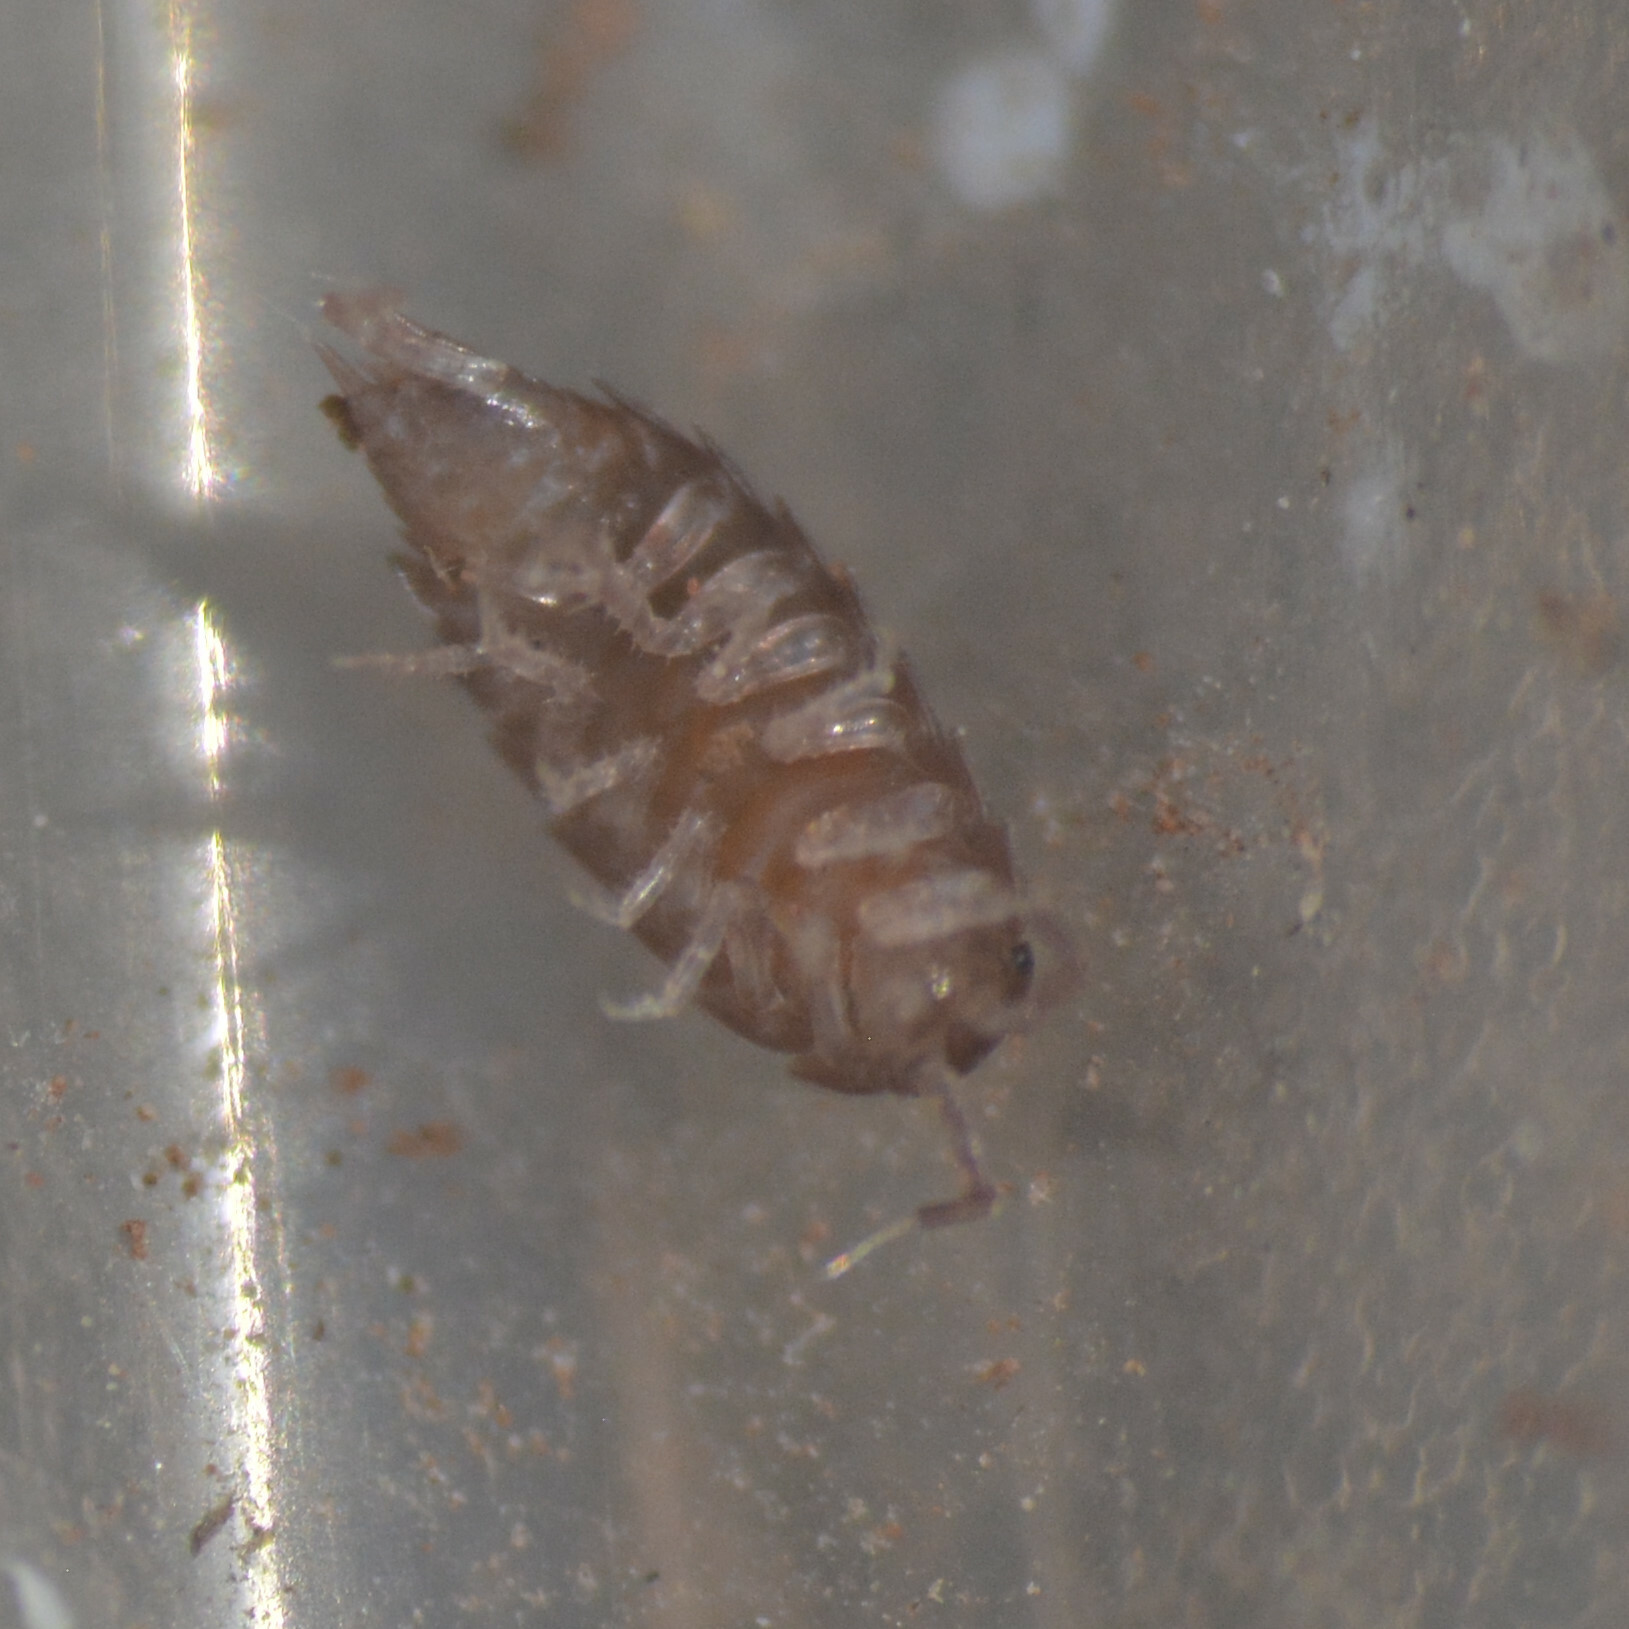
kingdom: Animalia
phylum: Arthropoda
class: Malacostraca
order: Isopoda
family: Trichoniscidae
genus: Trichoniscus
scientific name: Trichoniscus
